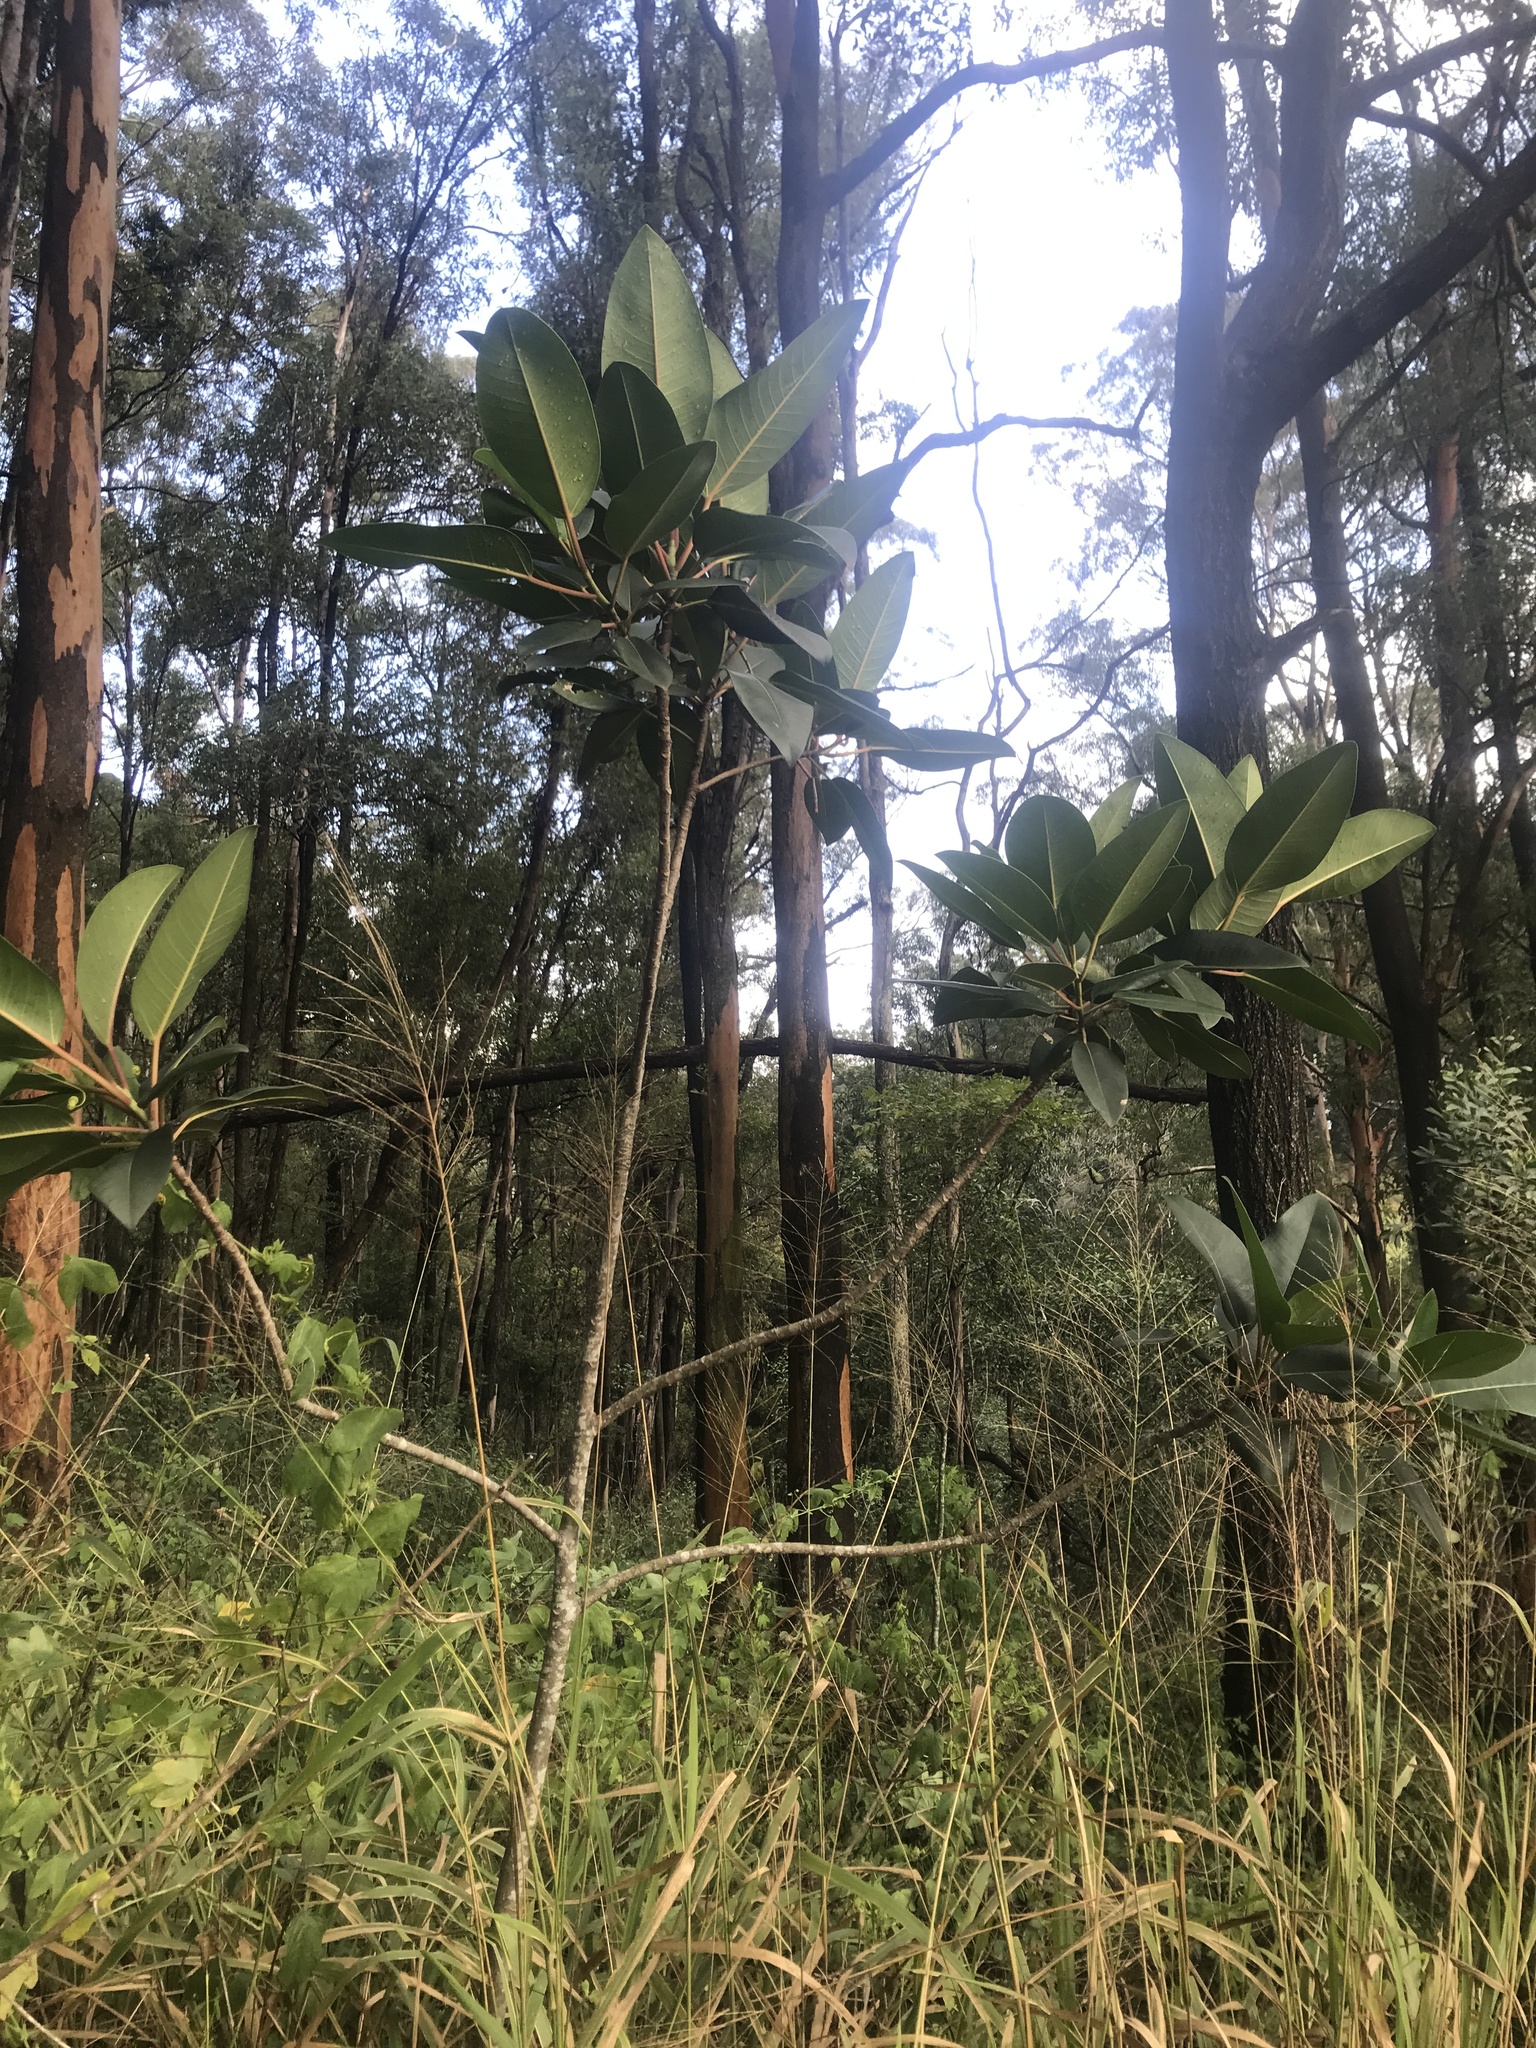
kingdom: Plantae
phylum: Tracheophyta
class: Magnoliopsida
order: Rosales
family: Moraceae
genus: Ficus
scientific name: Ficus elastica
